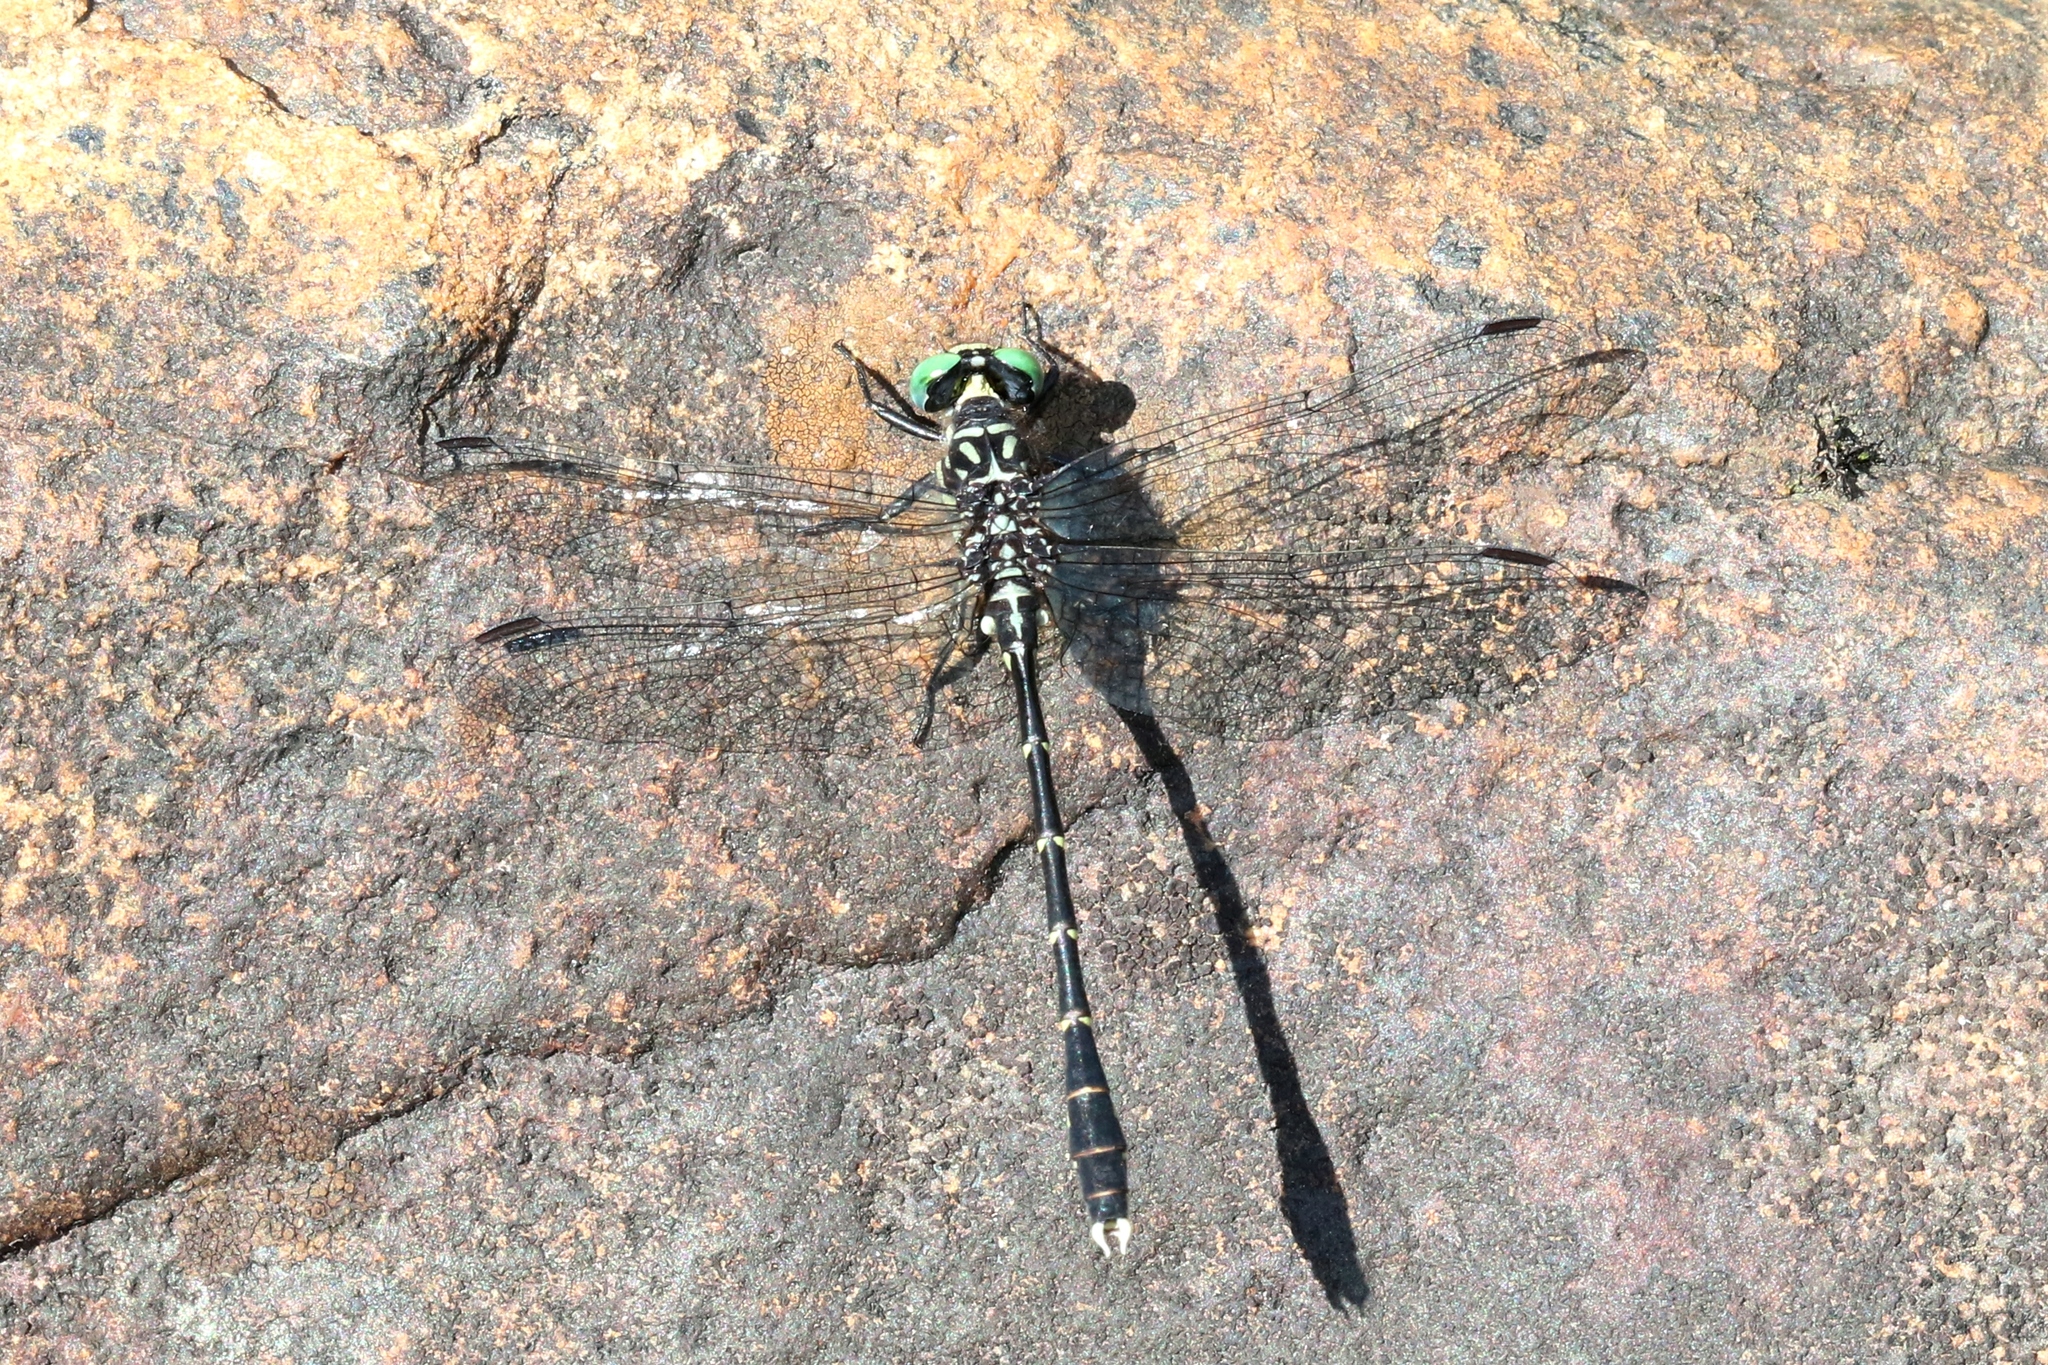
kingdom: Animalia
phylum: Arthropoda
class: Insecta
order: Odonata
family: Gomphidae
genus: Stylogomphus
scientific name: Stylogomphus albistylus
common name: Eastern least clubtail
